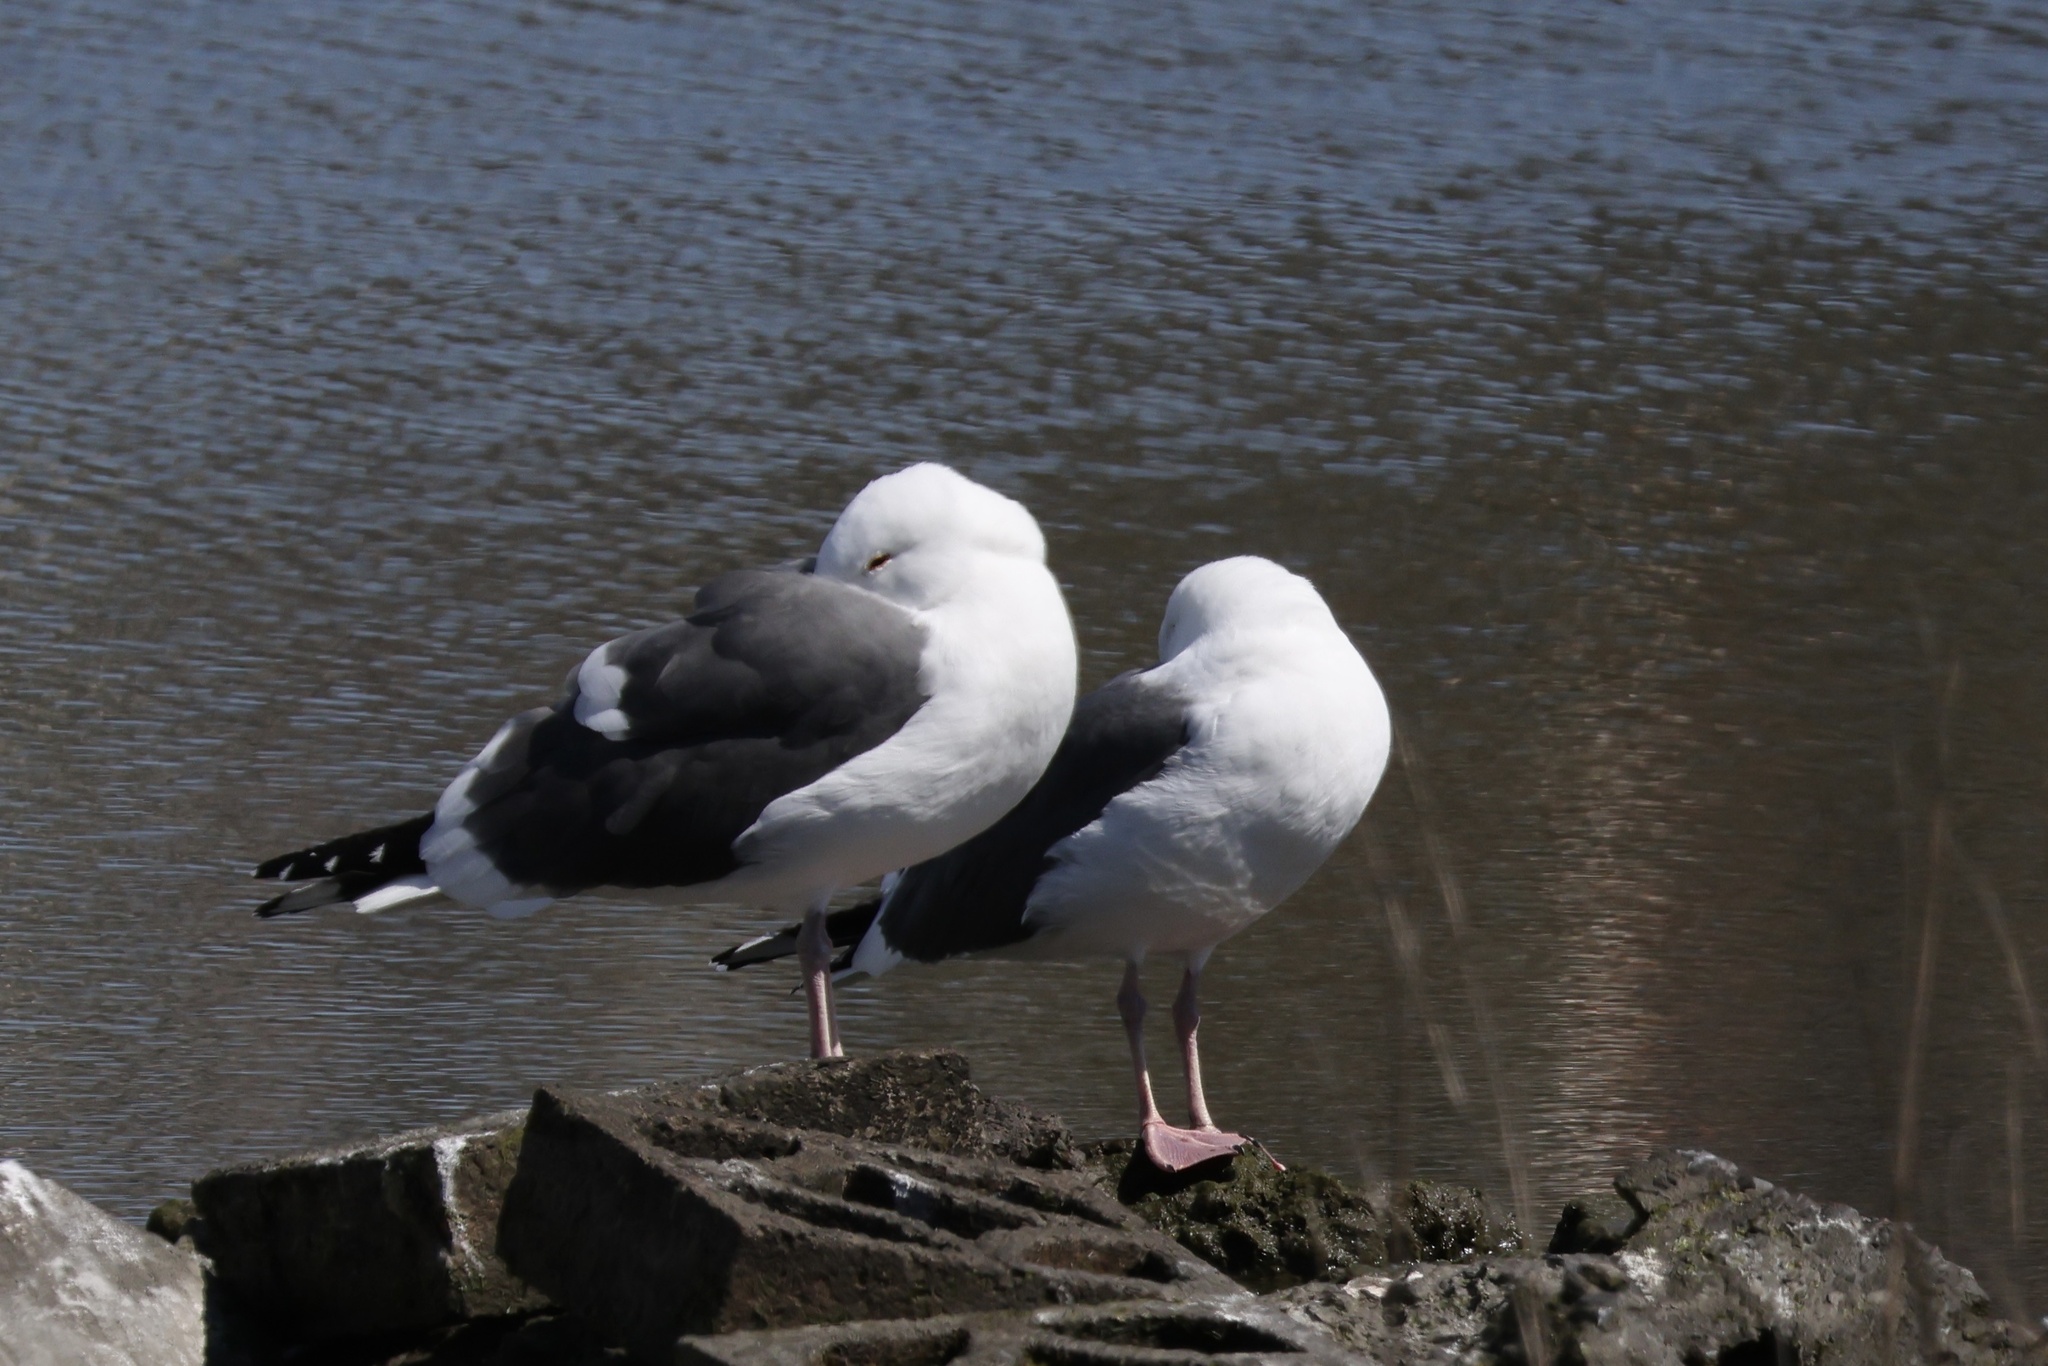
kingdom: Animalia
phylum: Chordata
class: Aves
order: Charadriiformes
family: Laridae
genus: Larus
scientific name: Larus occidentalis
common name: Western gull
